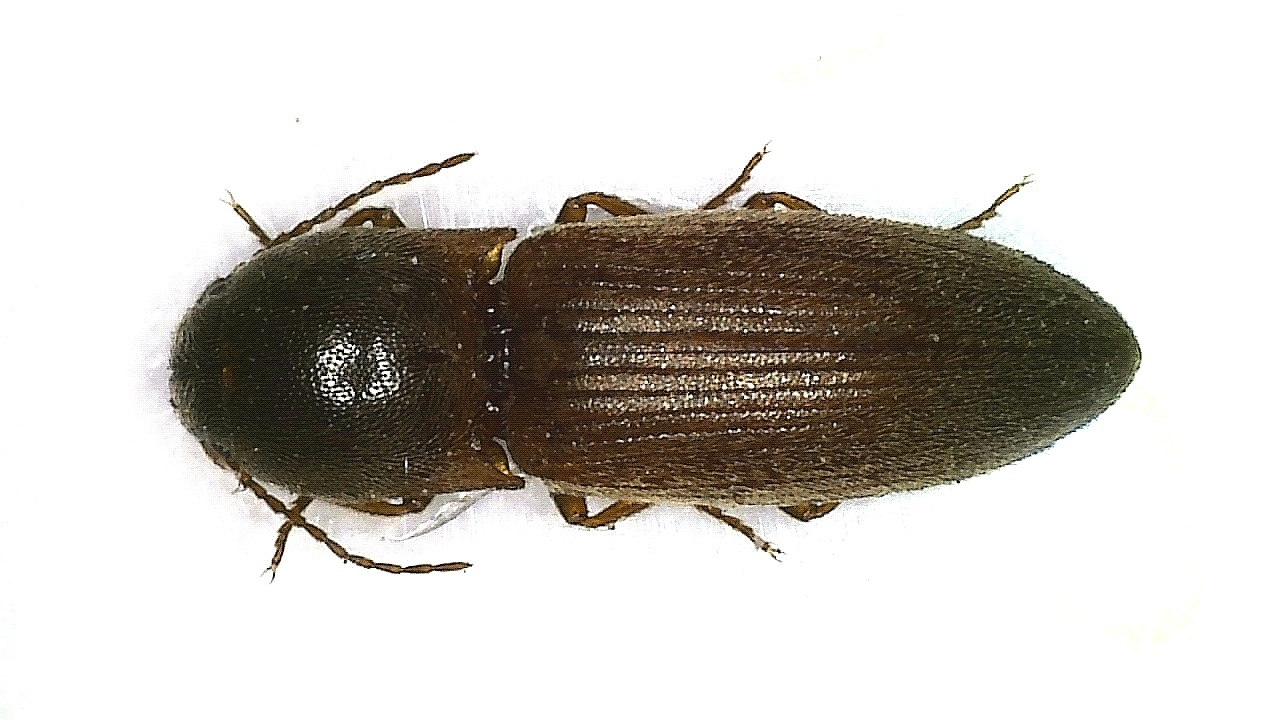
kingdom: Animalia
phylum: Arthropoda
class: Insecta
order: Coleoptera
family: Elateridae
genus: Athous
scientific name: Athous haemorrhoidalis
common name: Red-brown click beetle
